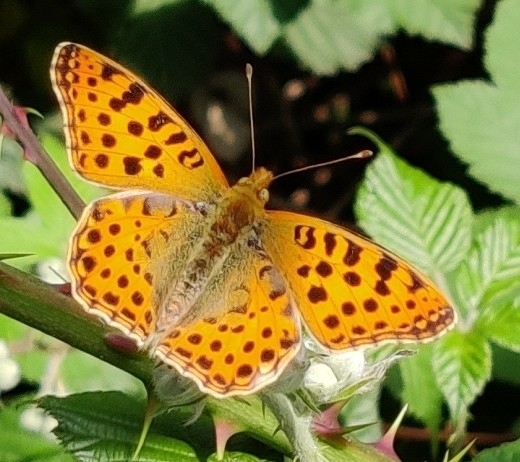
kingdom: Animalia
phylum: Arthropoda
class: Insecta
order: Lepidoptera
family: Nymphalidae
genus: Issoria
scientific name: Issoria lathonia
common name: Queen of spain fritillary
